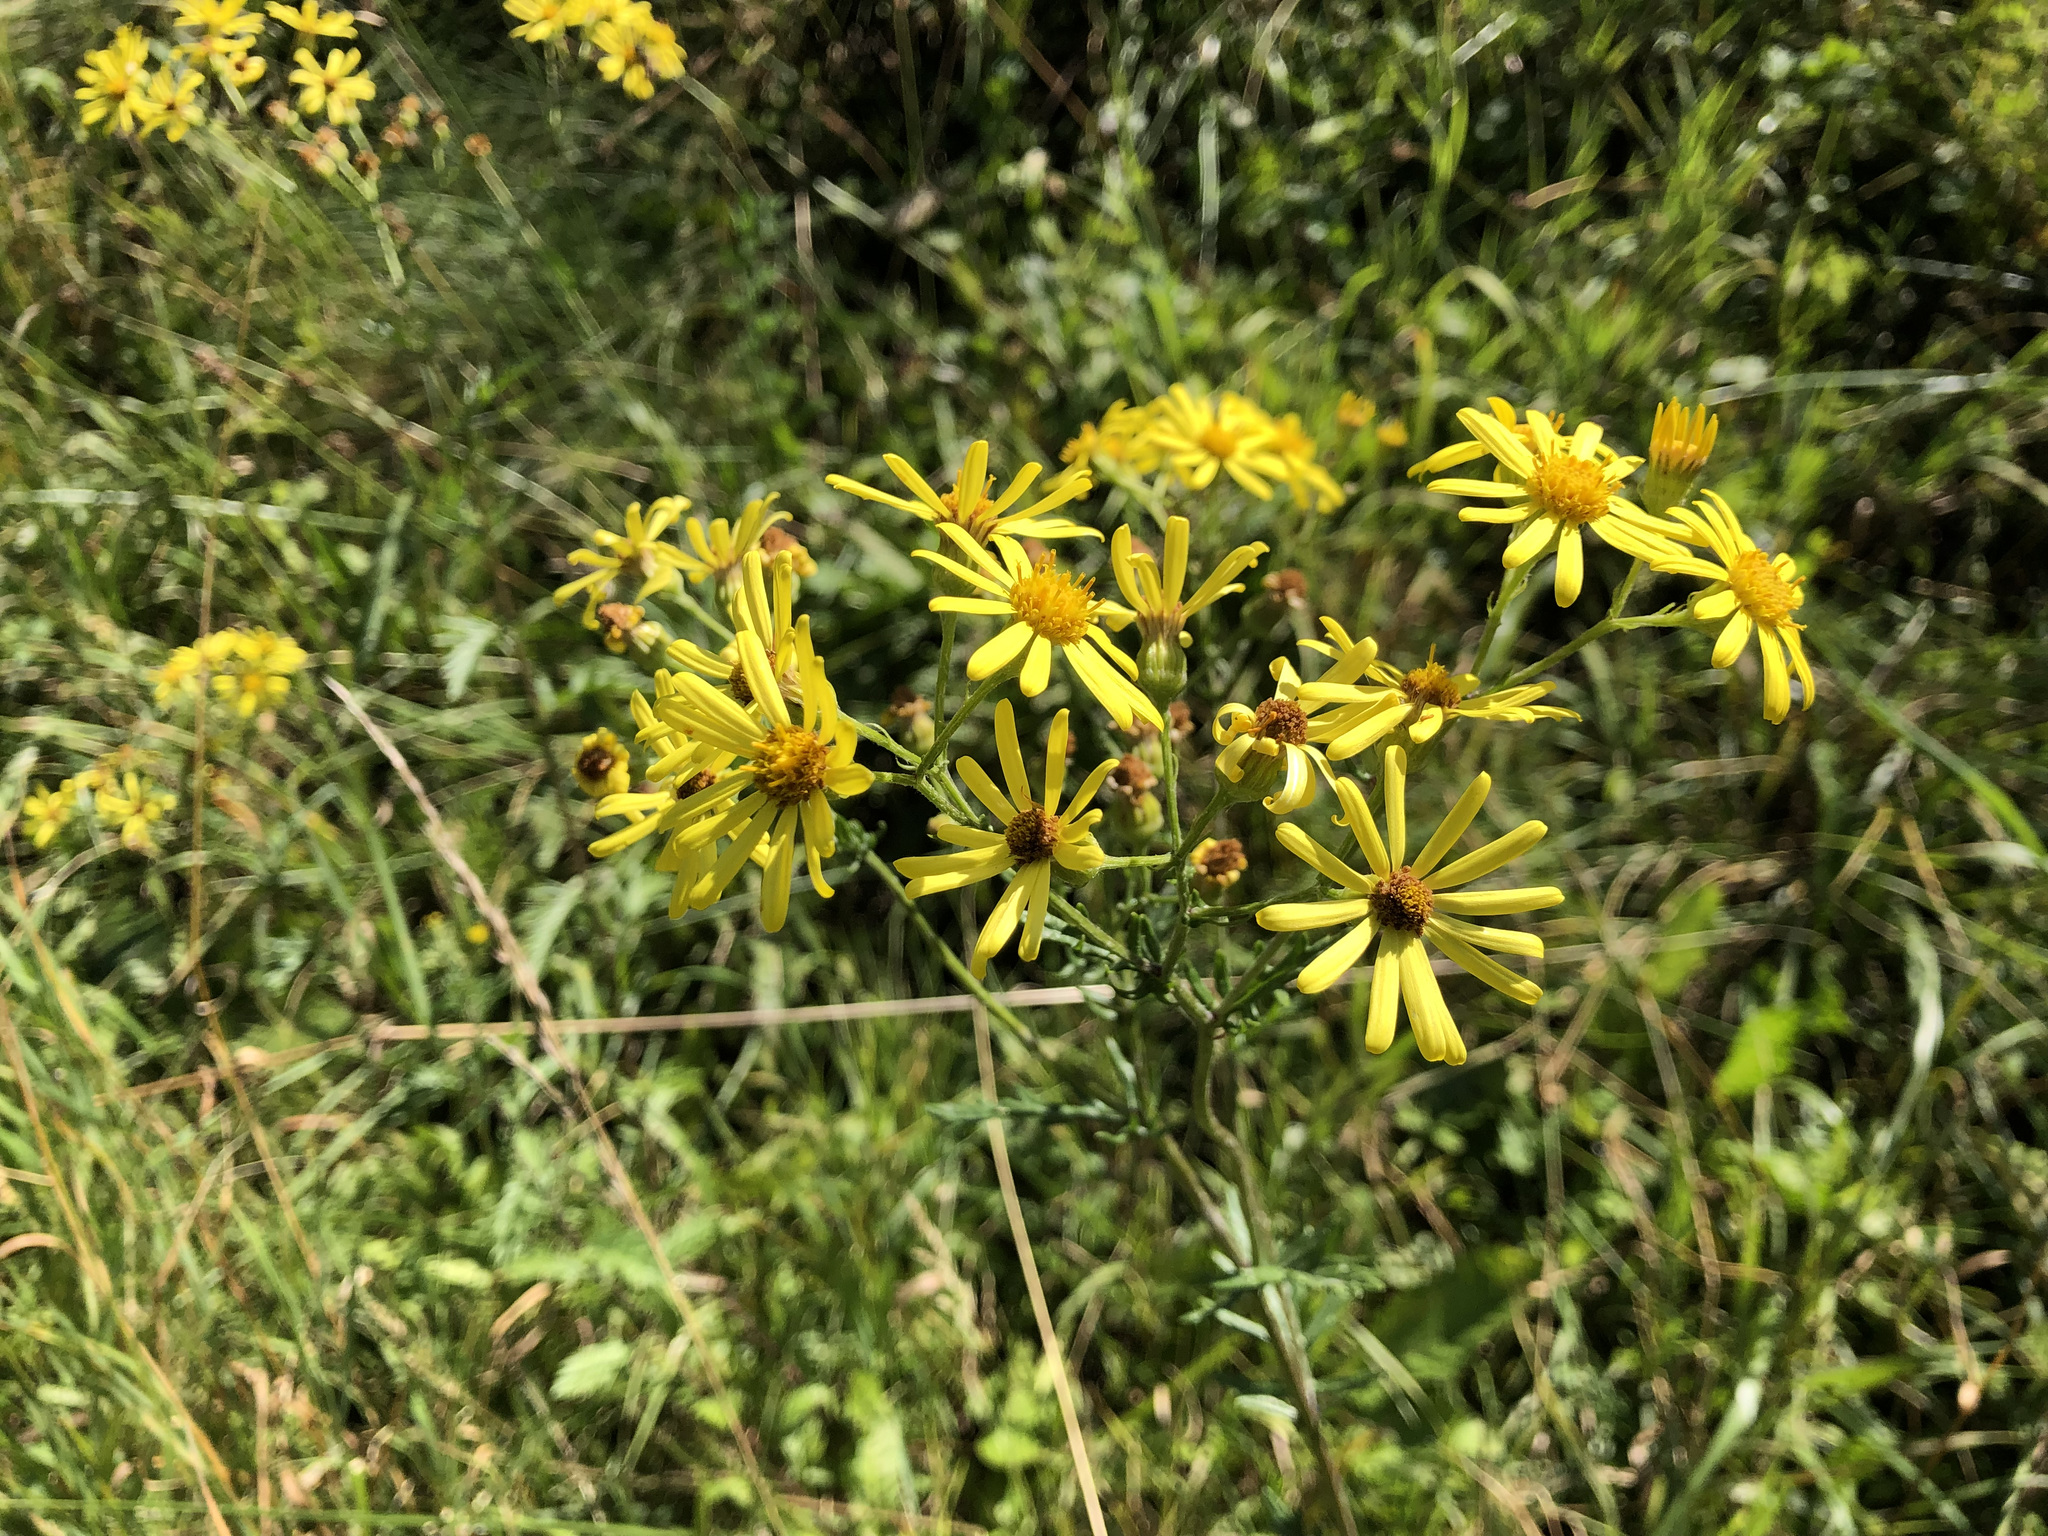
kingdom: Plantae
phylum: Tracheophyta
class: Magnoliopsida
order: Asterales
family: Asteraceae
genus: Jacobaea
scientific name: Jacobaea vulgaris
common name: Stinking willie
